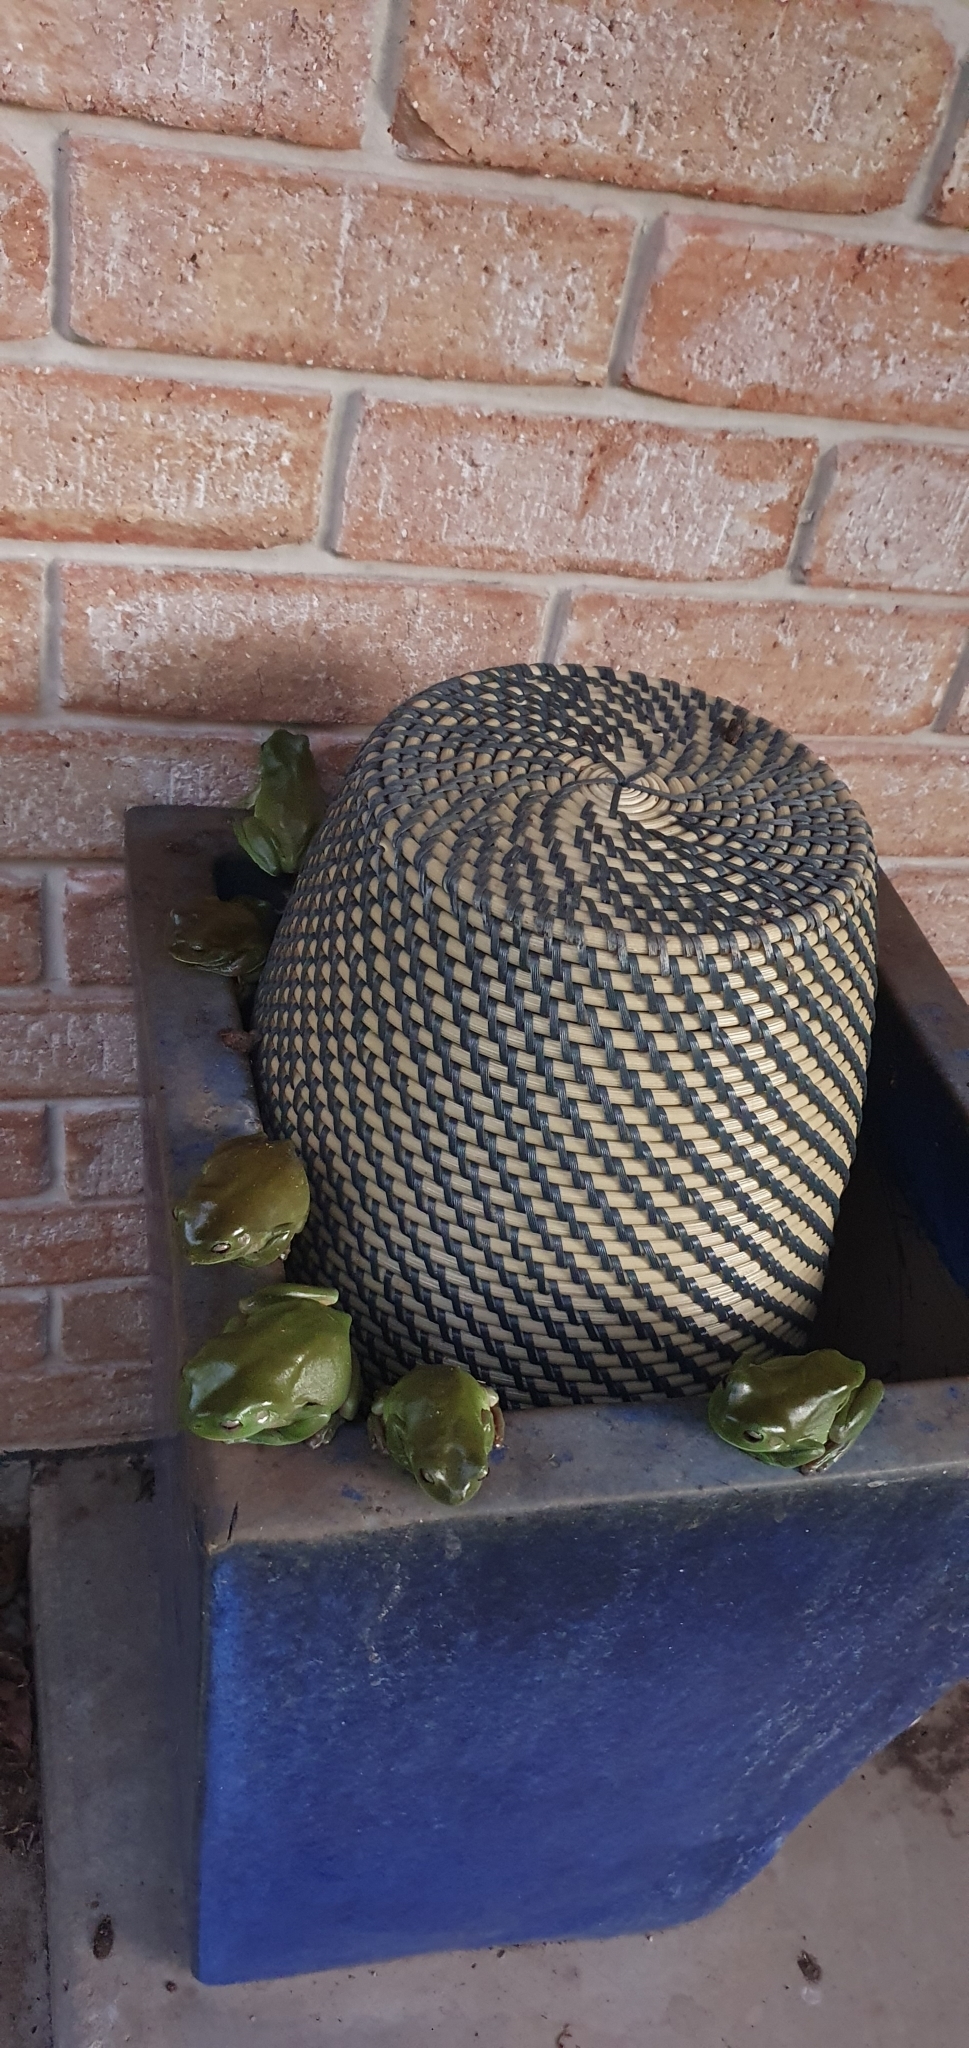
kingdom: Animalia
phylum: Chordata
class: Amphibia
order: Anura
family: Pelodryadidae
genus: Ranoidea
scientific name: Ranoidea caerulea
